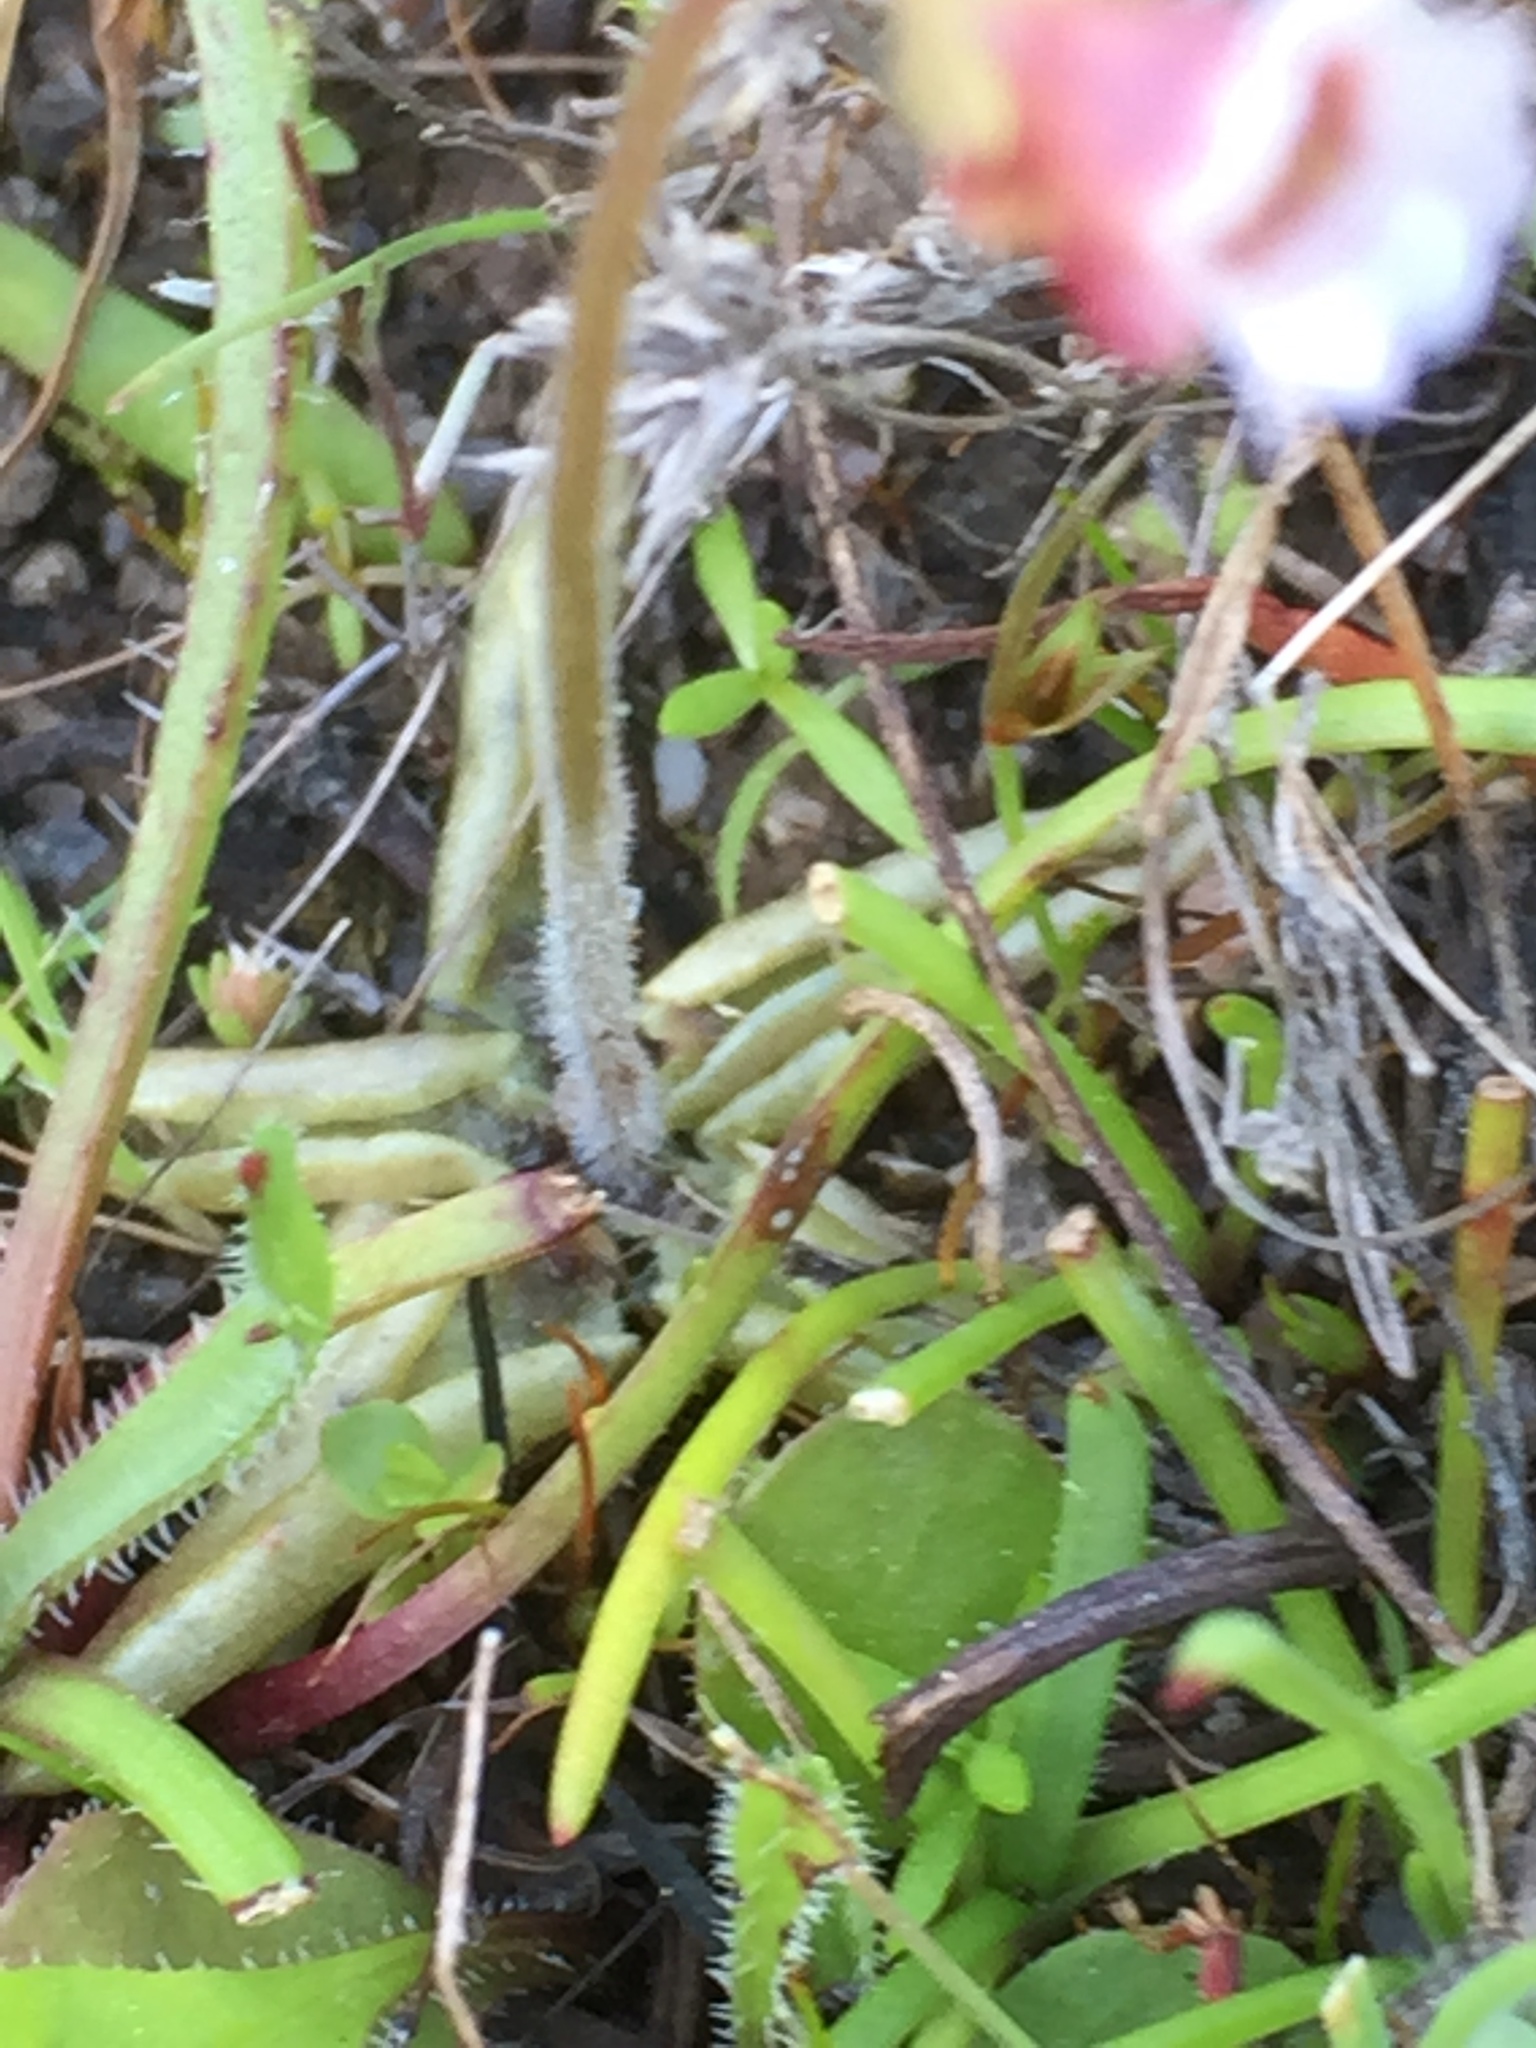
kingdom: Plantae
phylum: Tracheophyta
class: Magnoliopsida
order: Lamiales
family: Lentibulariaceae
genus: Pinguicula
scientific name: Pinguicula lusitanica
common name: Pale butterwort
